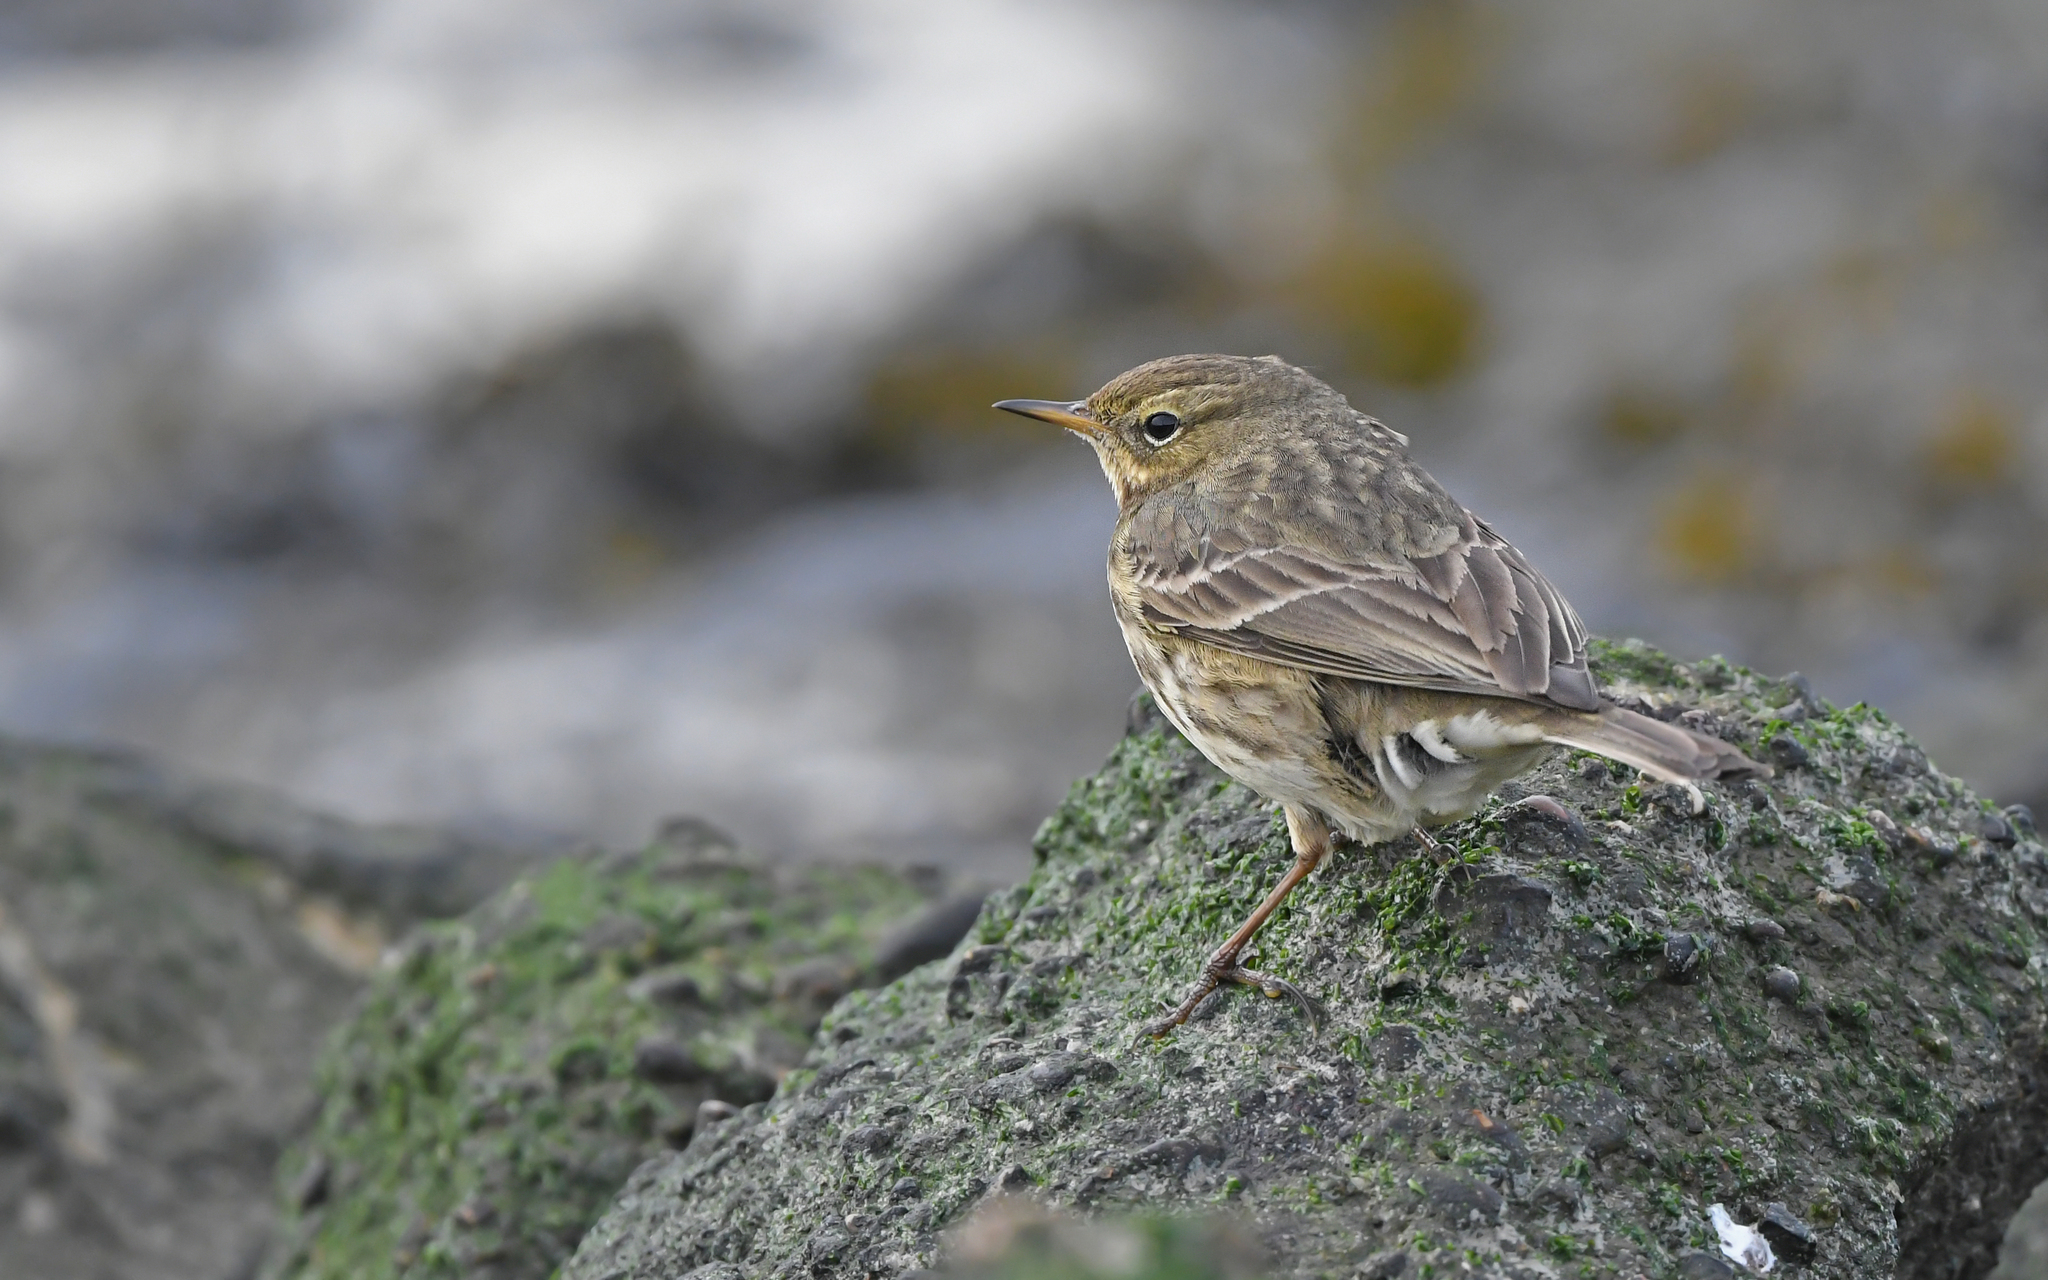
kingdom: Animalia
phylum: Chordata
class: Aves
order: Passeriformes
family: Motacillidae
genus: Anthus
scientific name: Anthus petrosus
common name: Eurasian rock pipit
